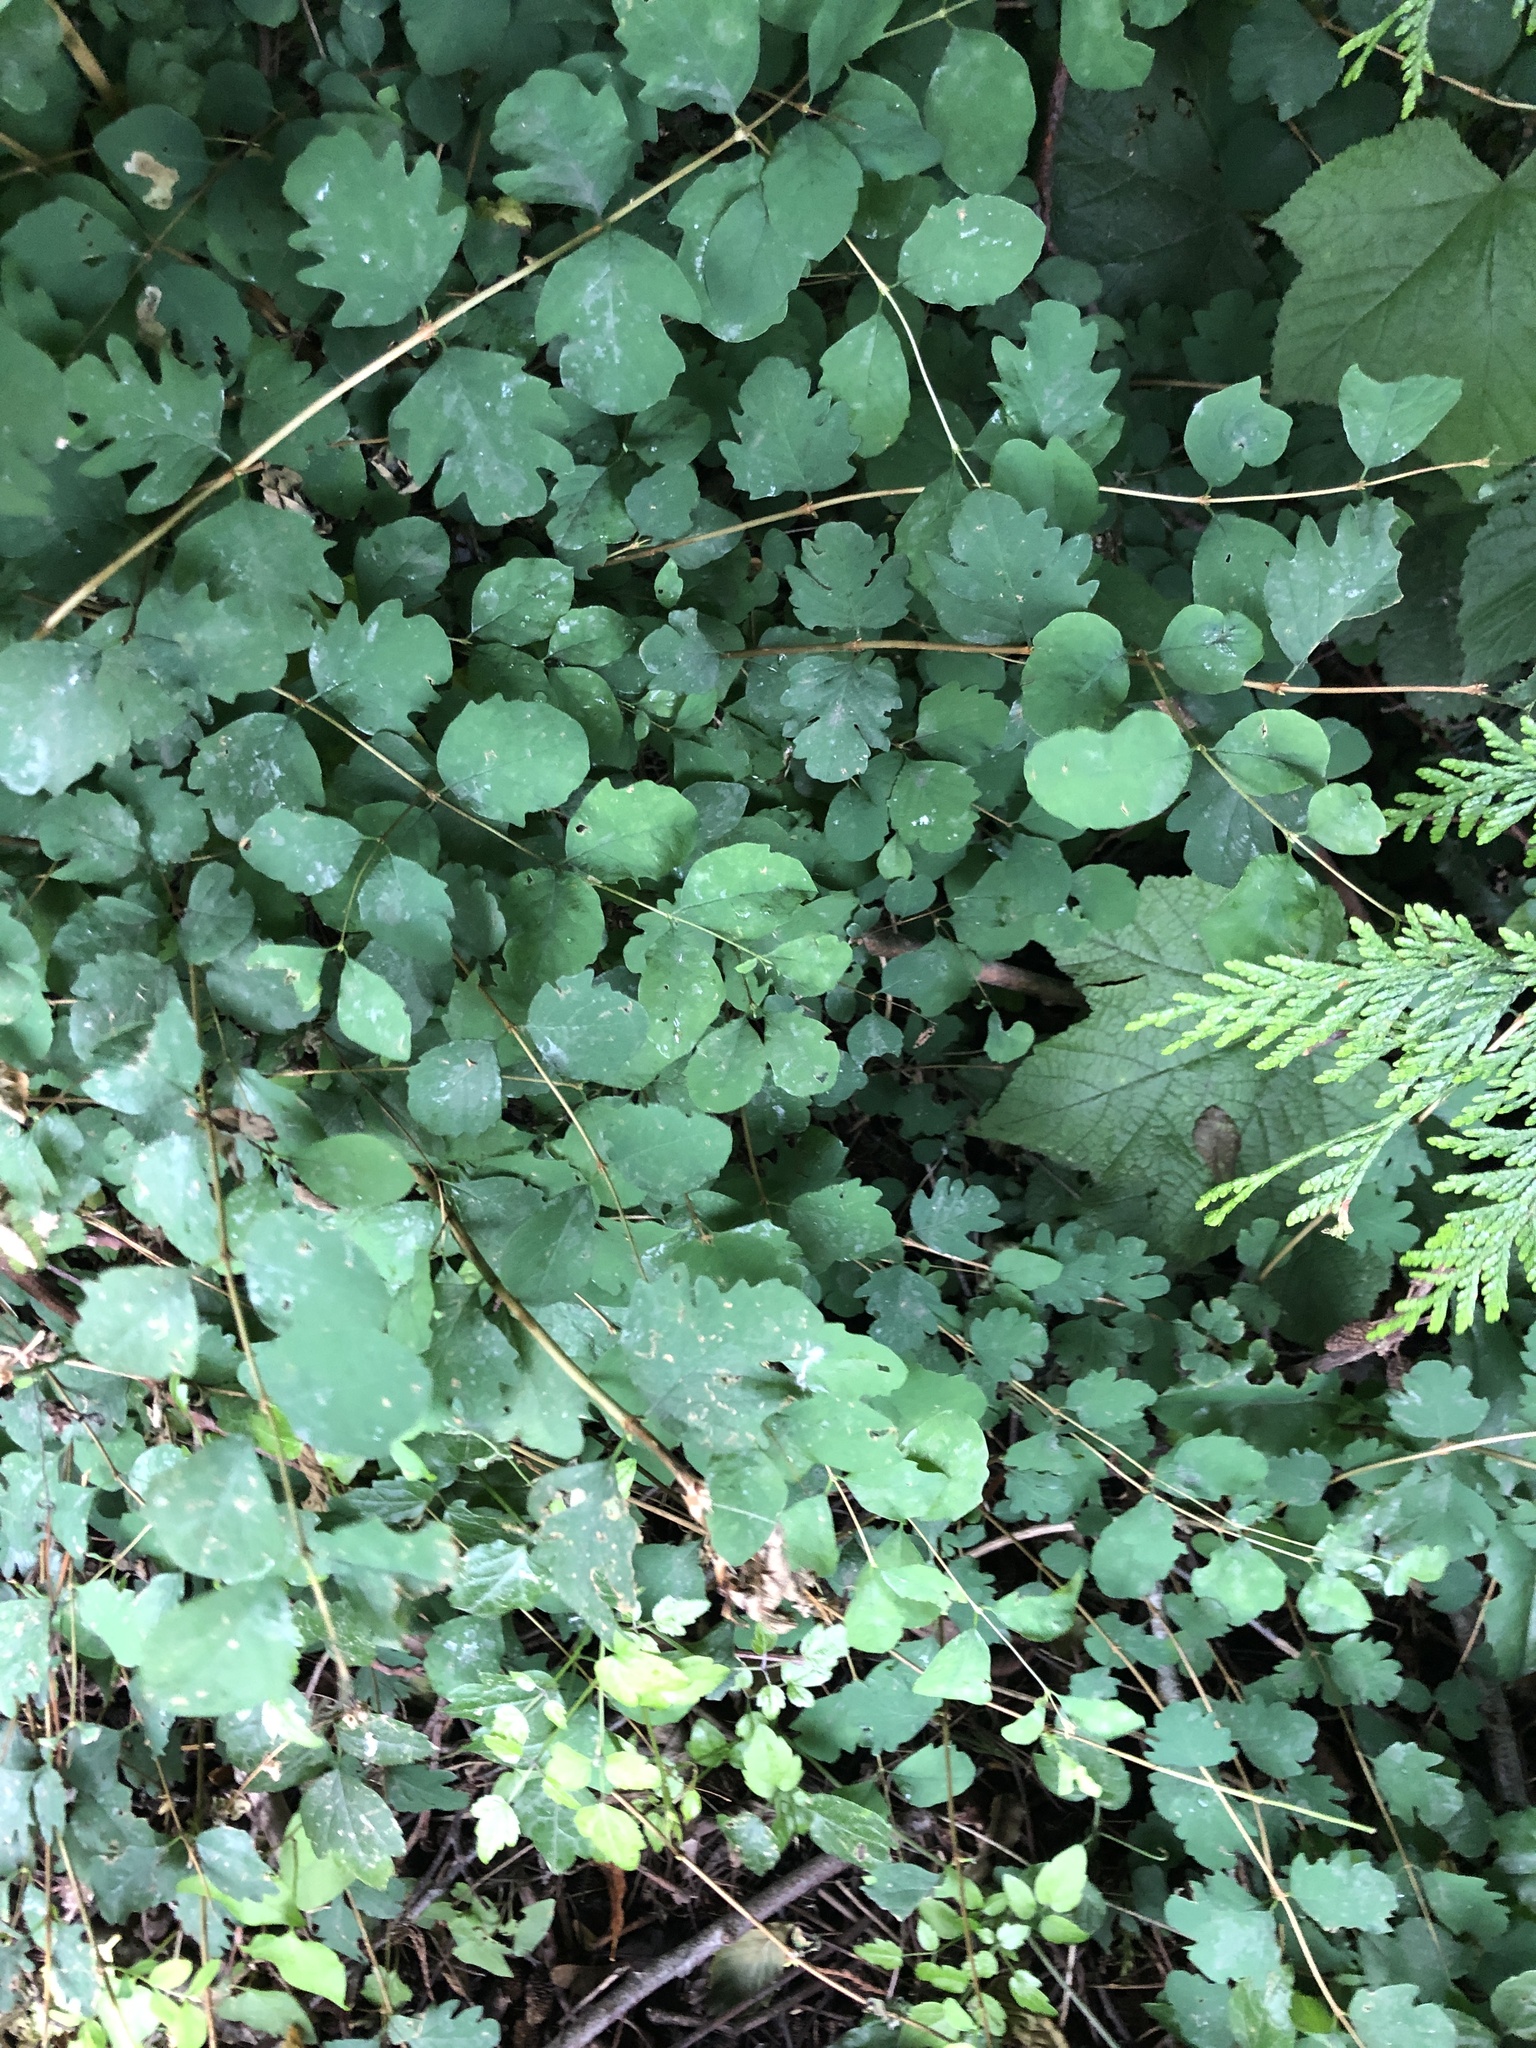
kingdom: Plantae
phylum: Tracheophyta
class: Magnoliopsida
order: Dipsacales
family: Caprifoliaceae
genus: Symphoricarpos
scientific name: Symphoricarpos albus
